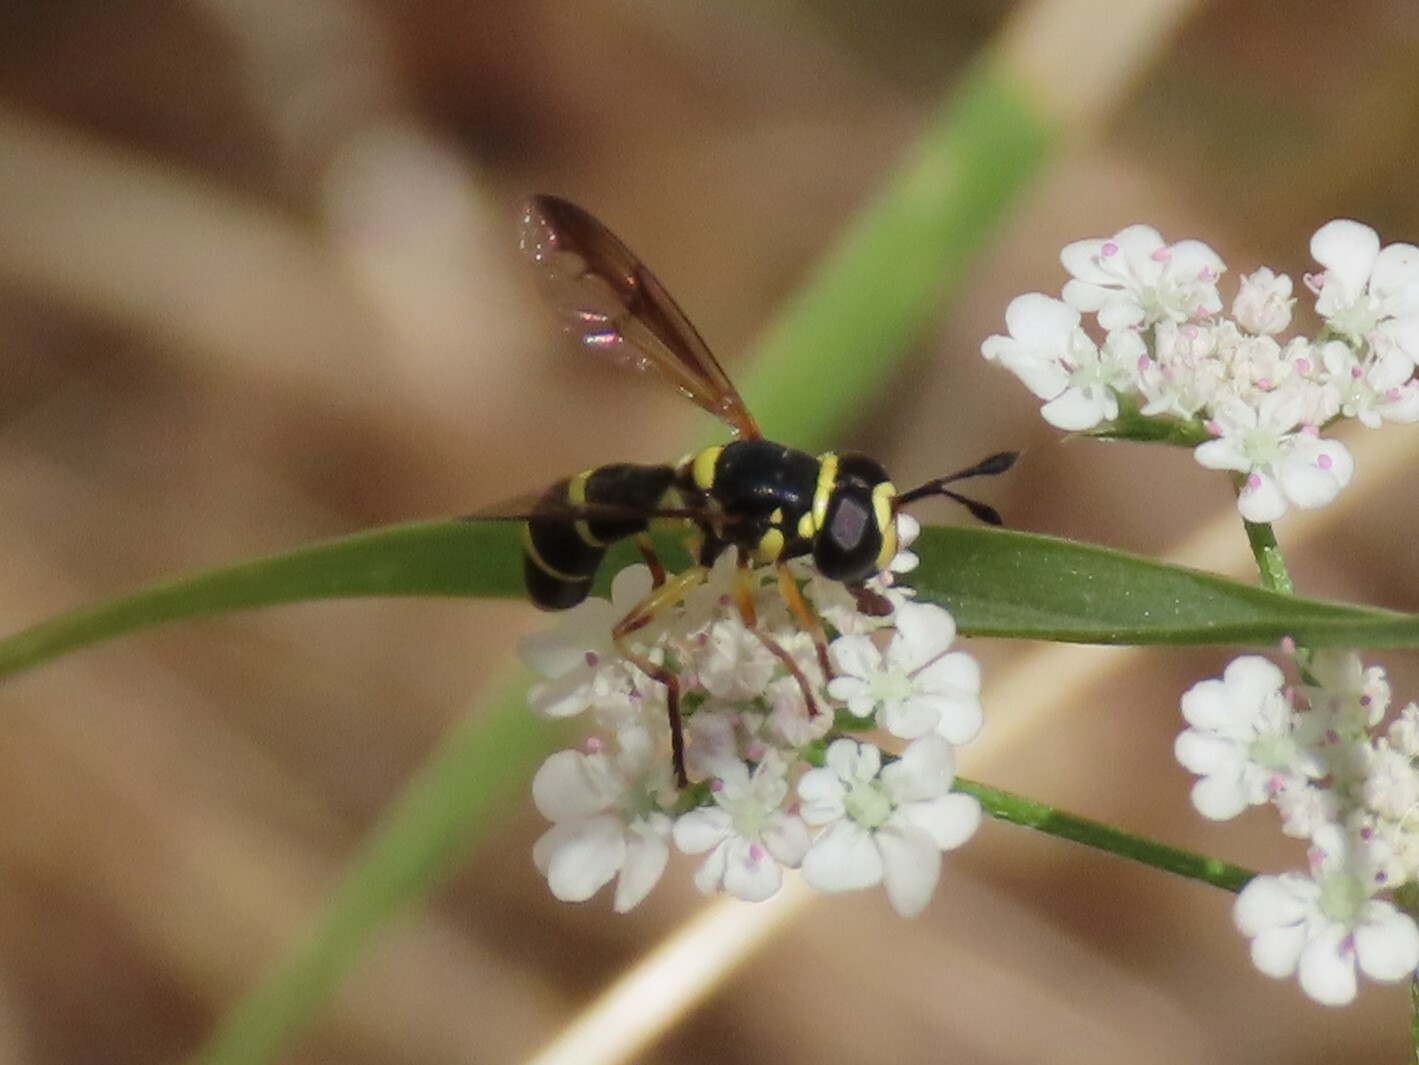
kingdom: Animalia
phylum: Arthropoda
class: Insecta
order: Diptera
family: Syrphidae
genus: Ceriana
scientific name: Ceriana vespiformis
